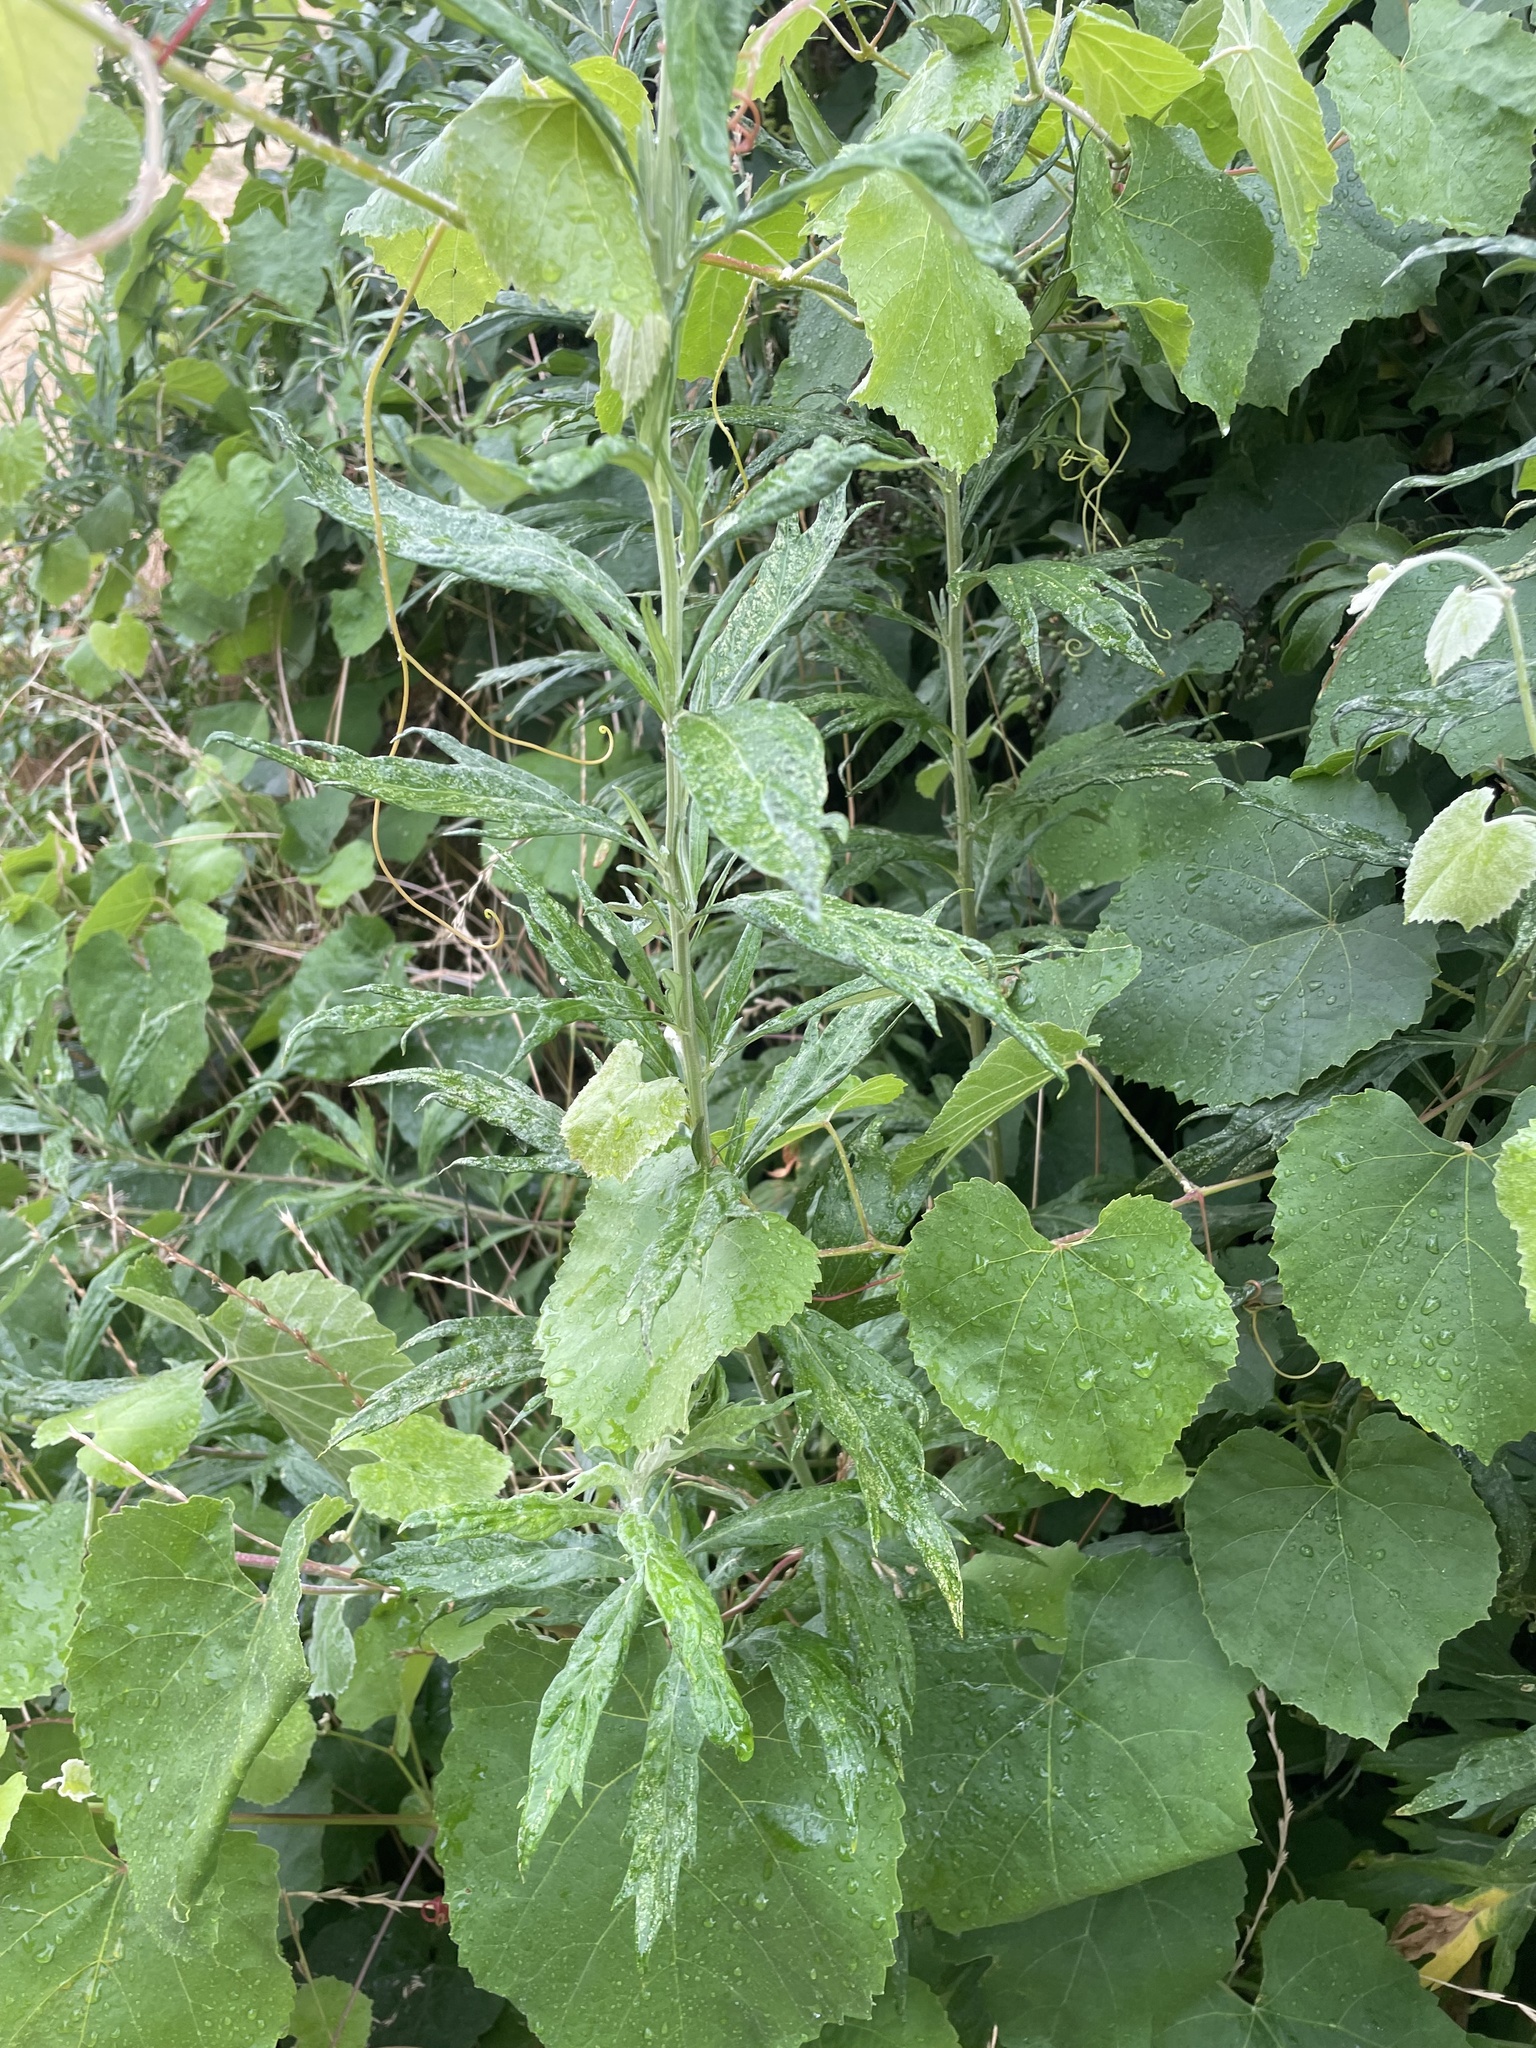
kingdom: Plantae
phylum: Tracheophyta
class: Magnoliopsida
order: Asterales
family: Asteraceae
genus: Artemisia
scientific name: Artemisia douglasiana
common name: Northwest mugwort
